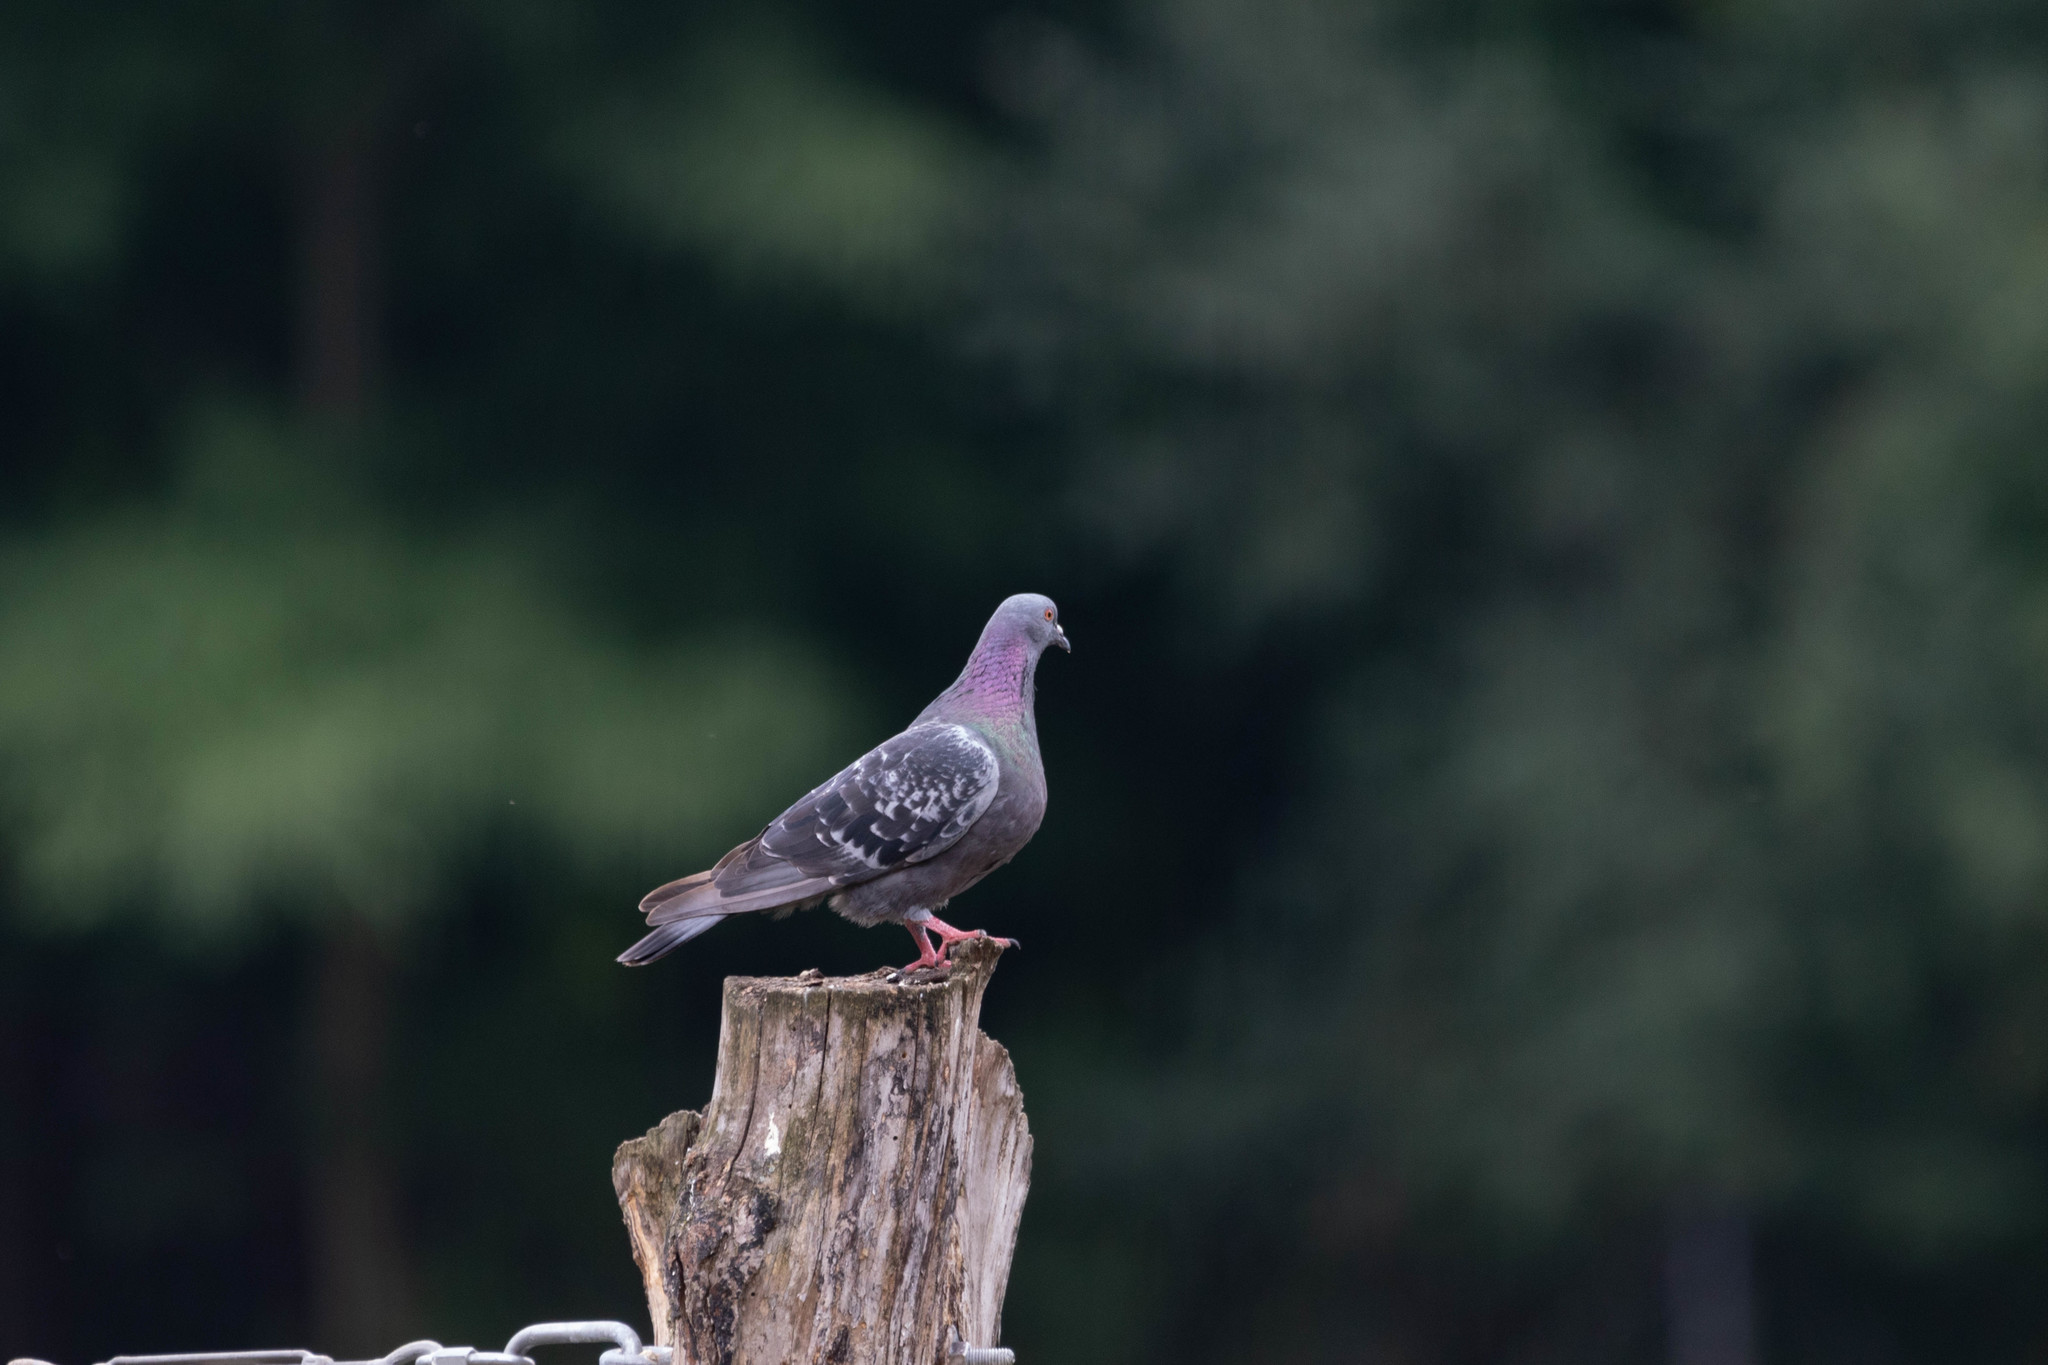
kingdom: Animalia
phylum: Chordata
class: Aves
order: Columbiformes
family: Columbidae
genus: Columba
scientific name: Columba livia
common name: Rock pigeon
